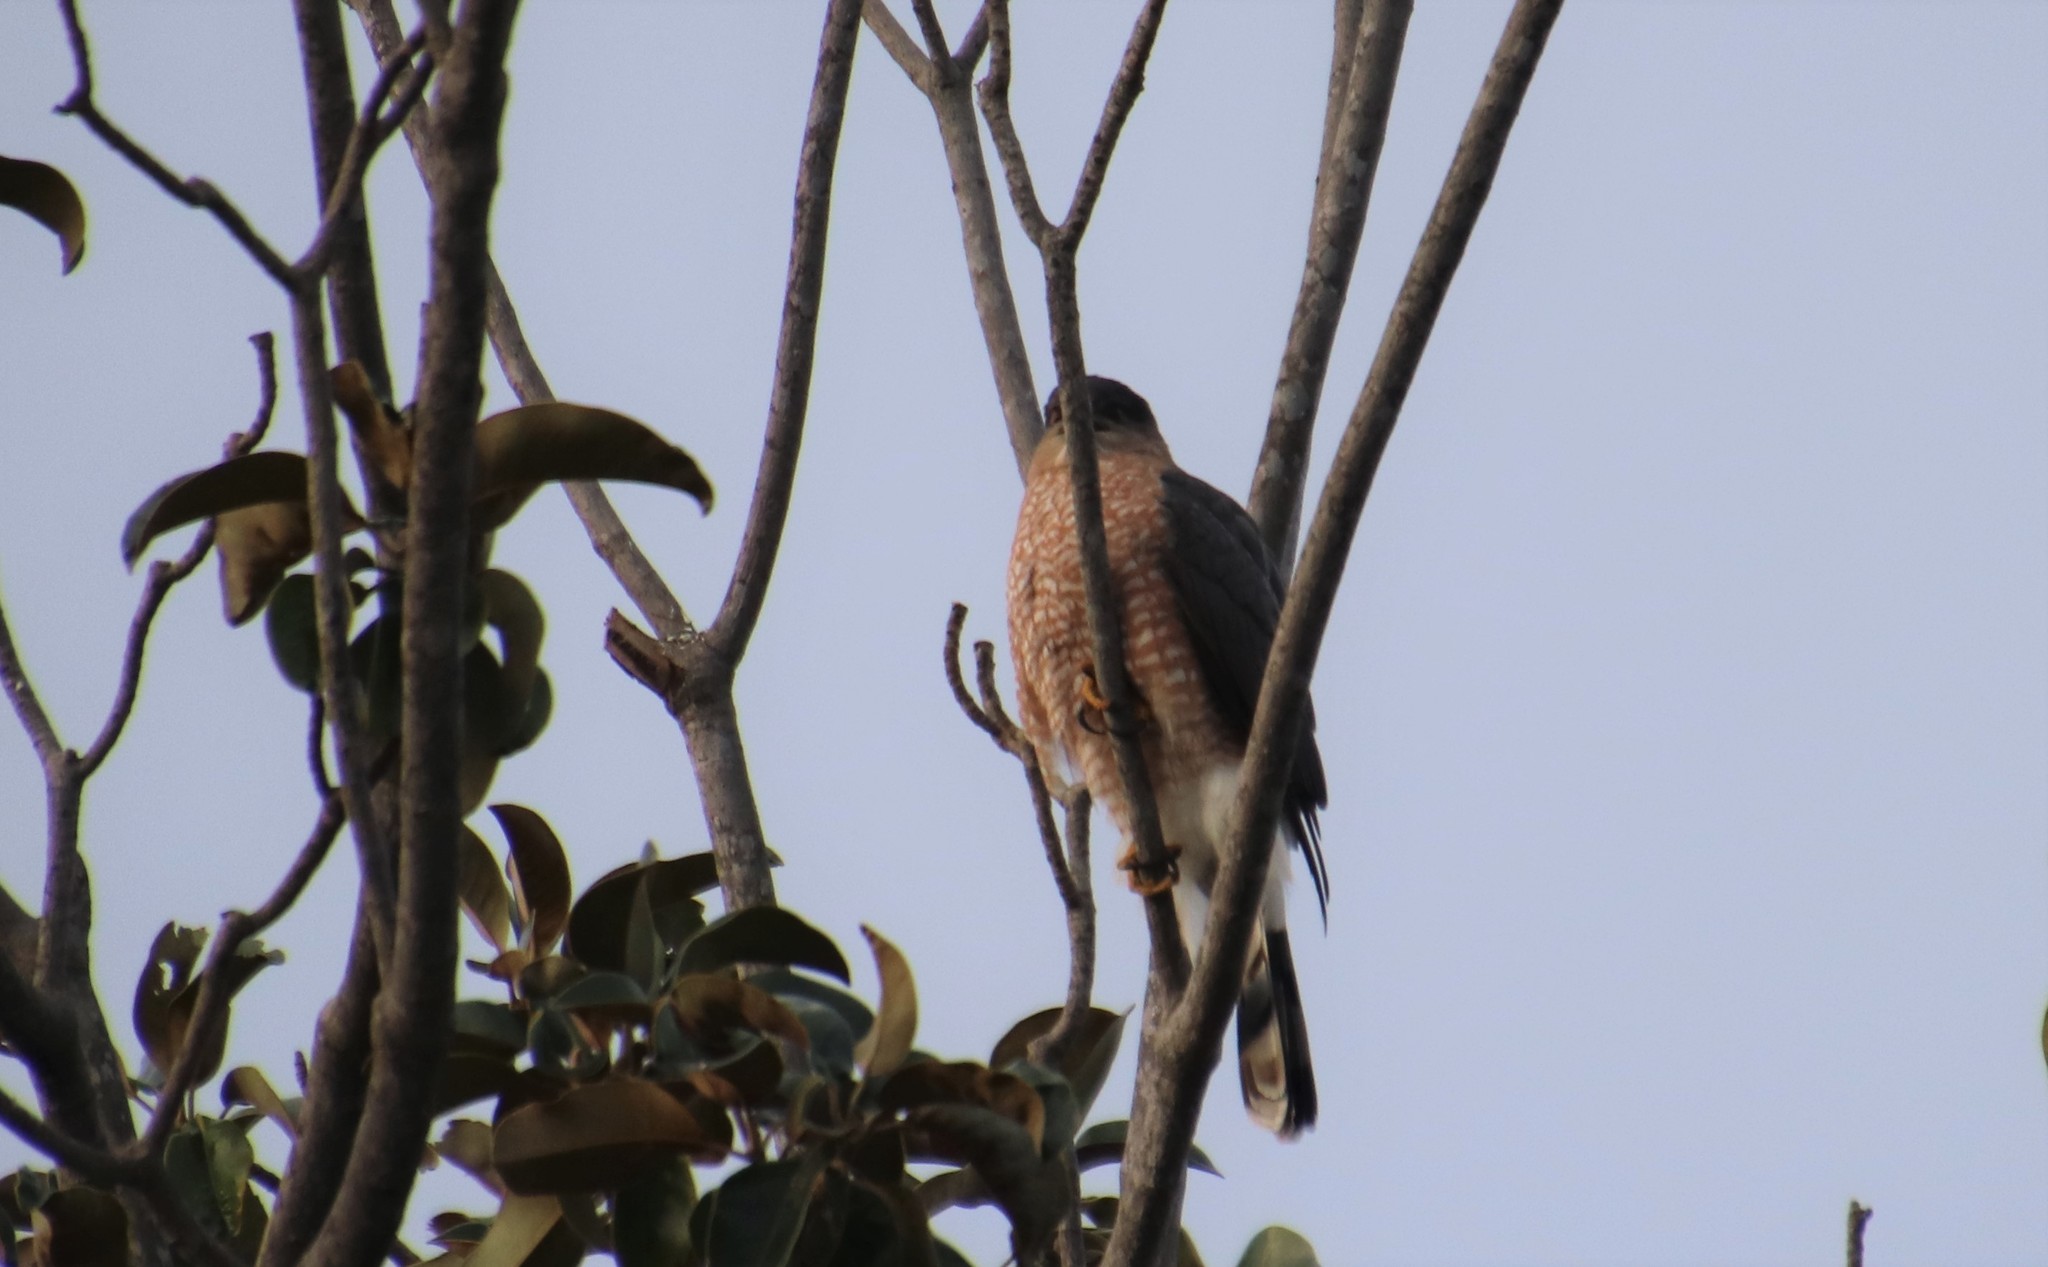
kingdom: Animalia
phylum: Chordata
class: Aves
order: Accipitriformes
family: Accipitridae
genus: Accipiter
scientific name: Accipiter cooperii
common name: Cooper's hawk
